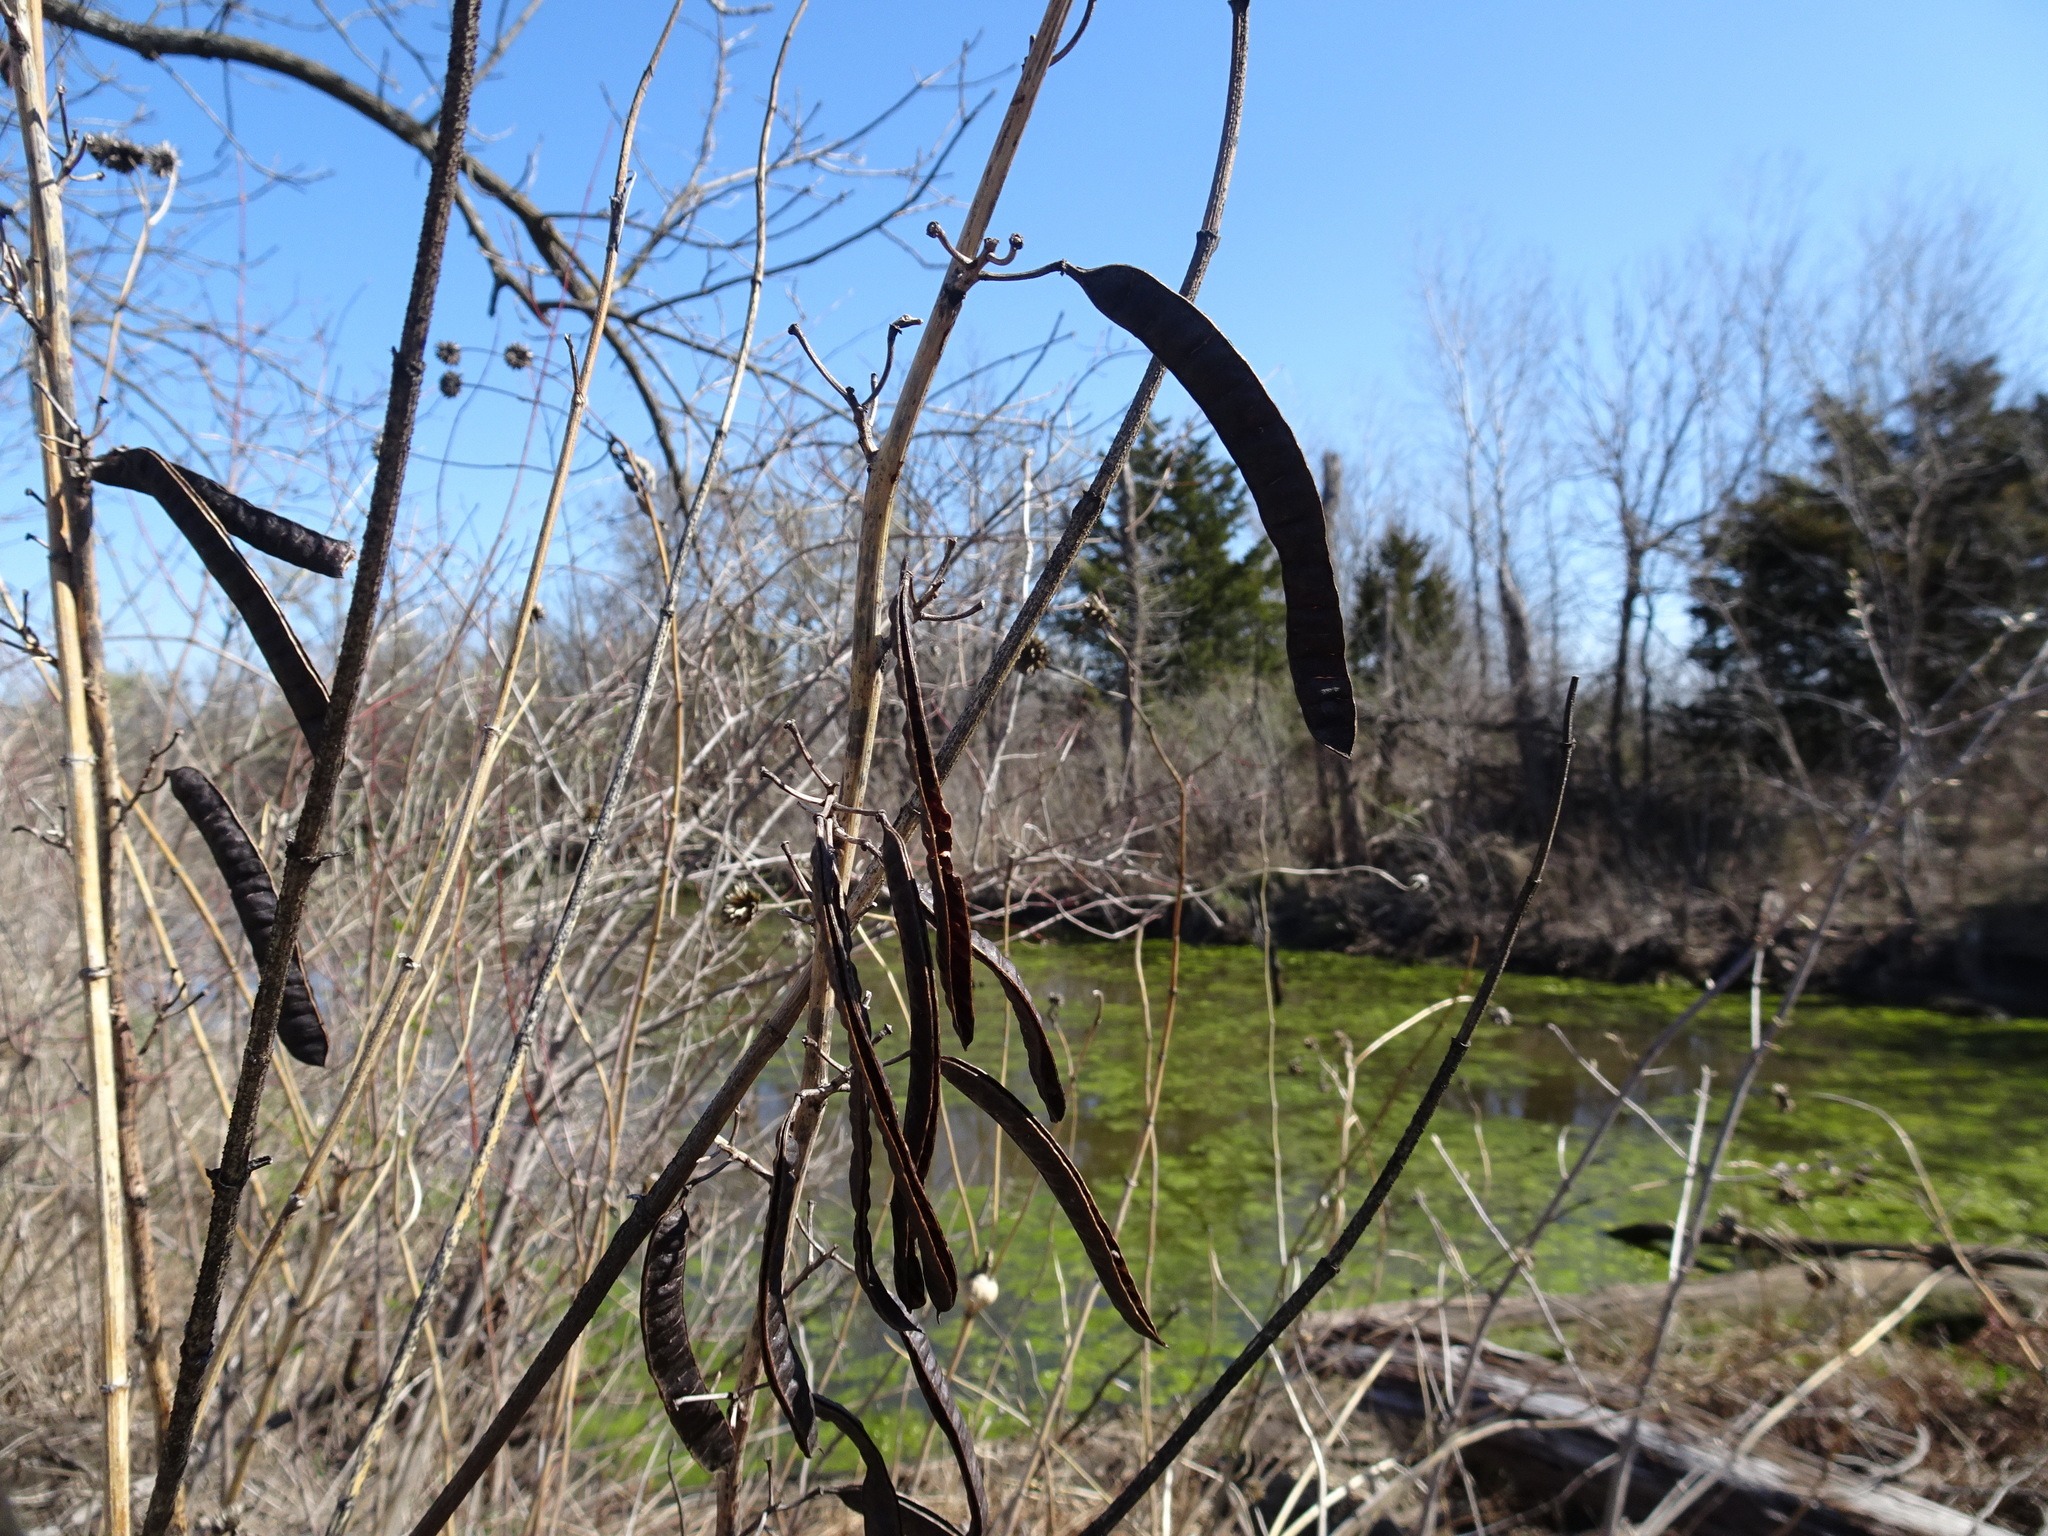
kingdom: Plantae
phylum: Tracheophyta
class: Magnoliopsida
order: Fabales
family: Fabaceae
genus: Senna
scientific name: Senna marilandica
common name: American senna
